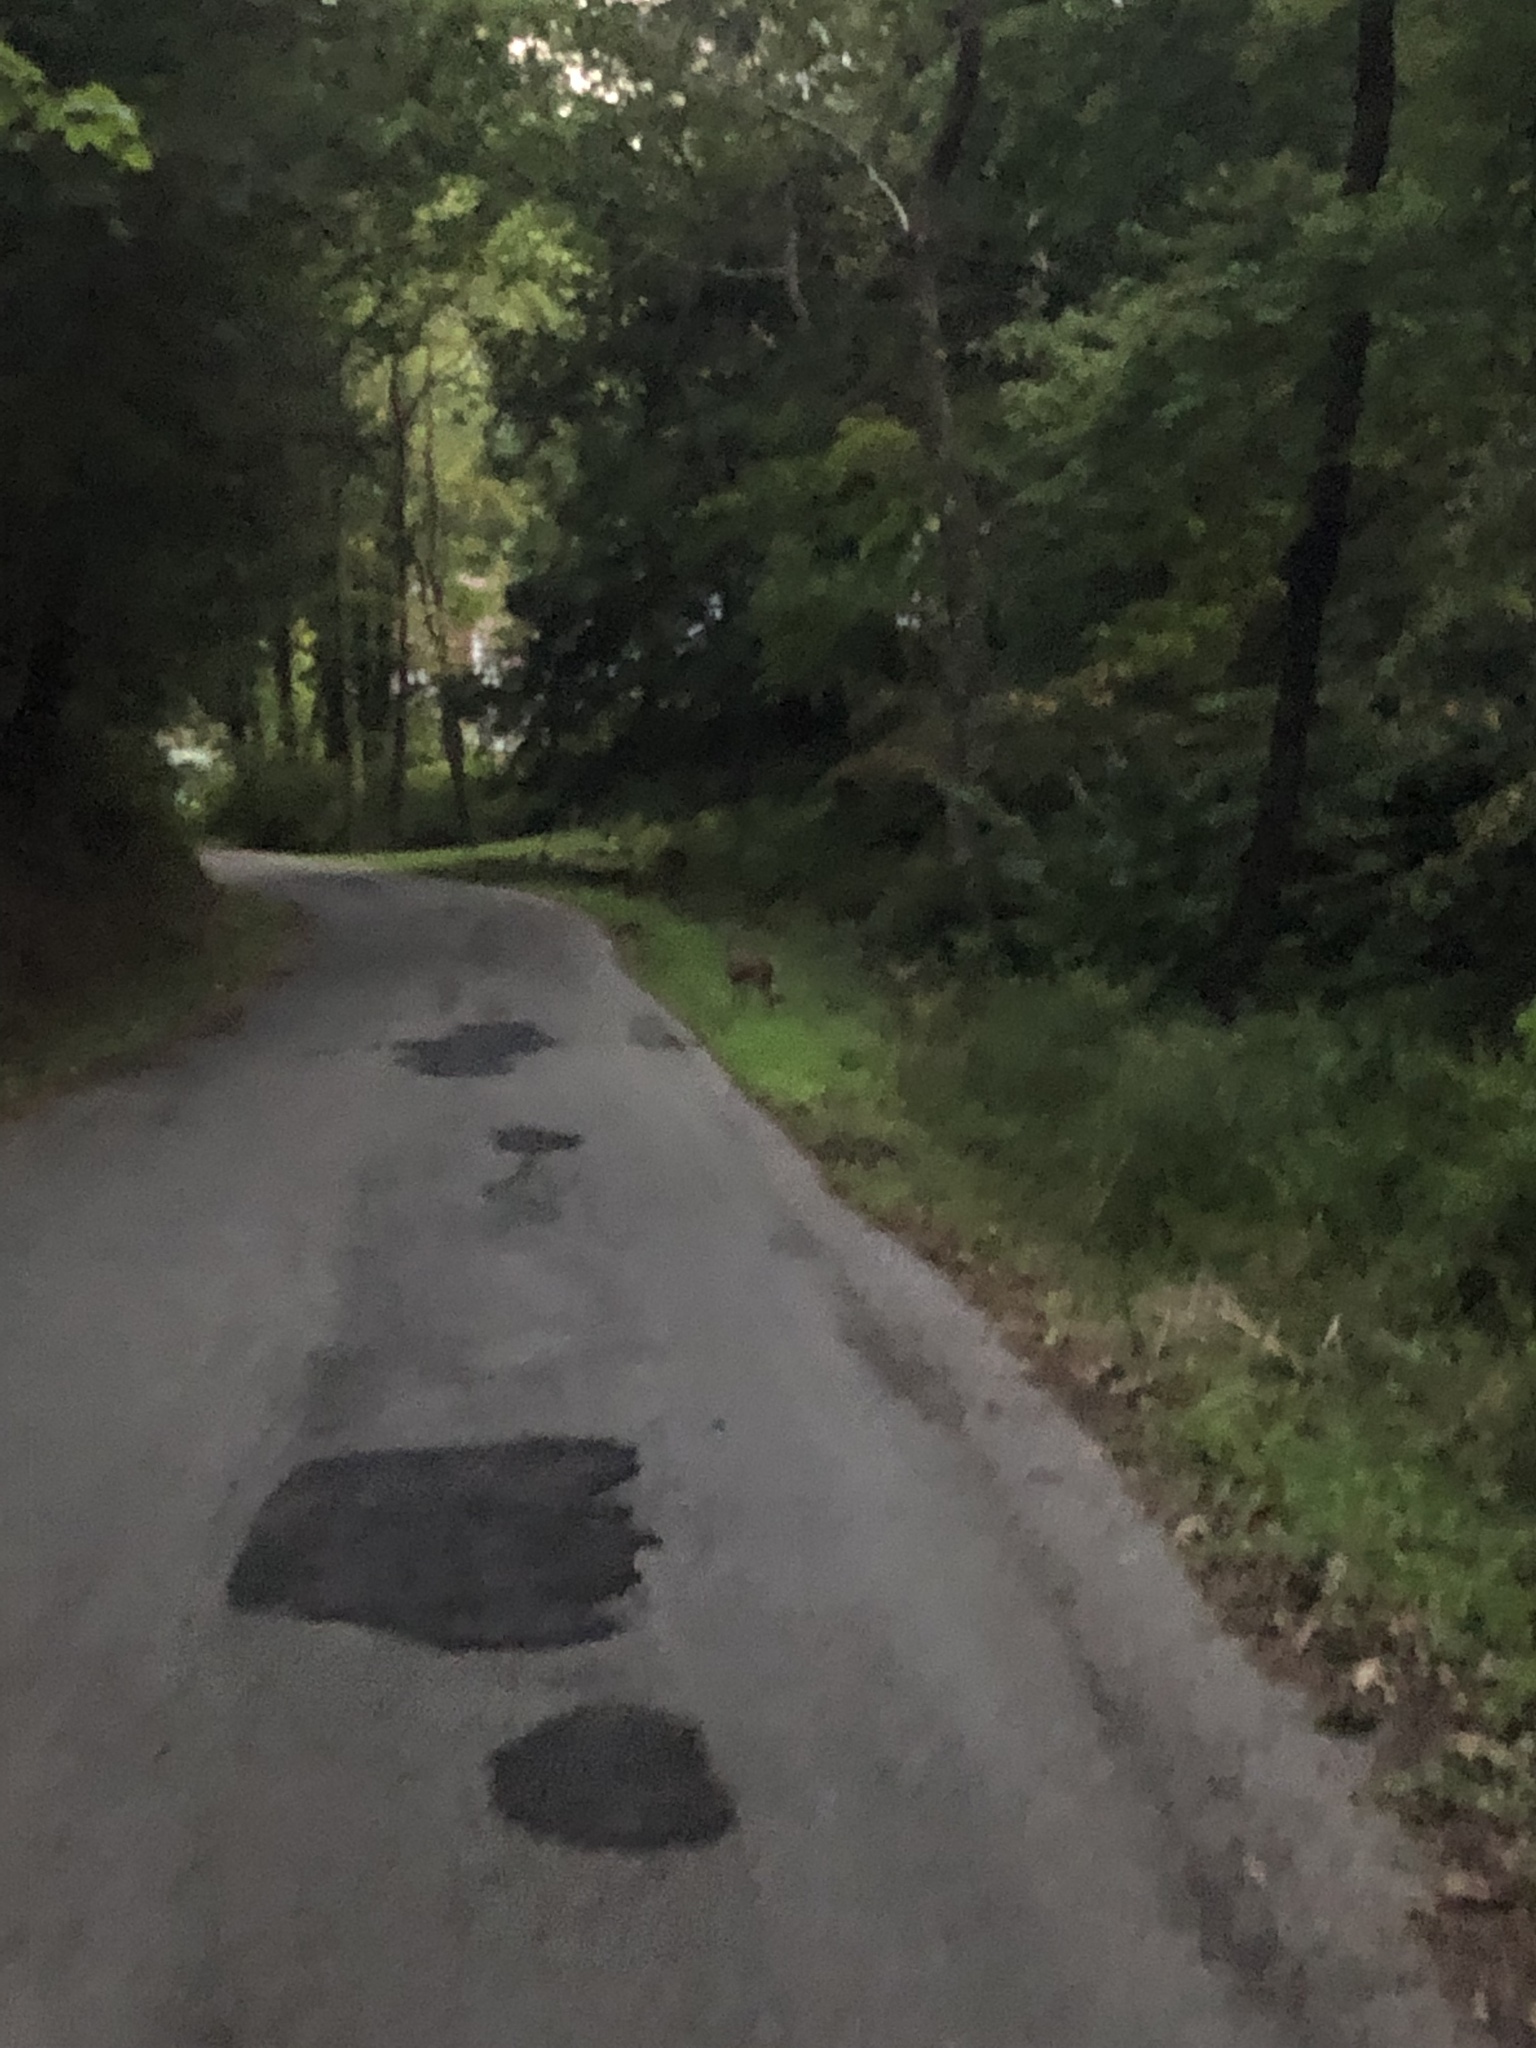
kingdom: Animalia
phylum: Chordata
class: Mammalia
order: Artiodactyla
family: Cervidae
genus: Odocoileus
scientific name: Odocoileus virginianus
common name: White-tailed deer
